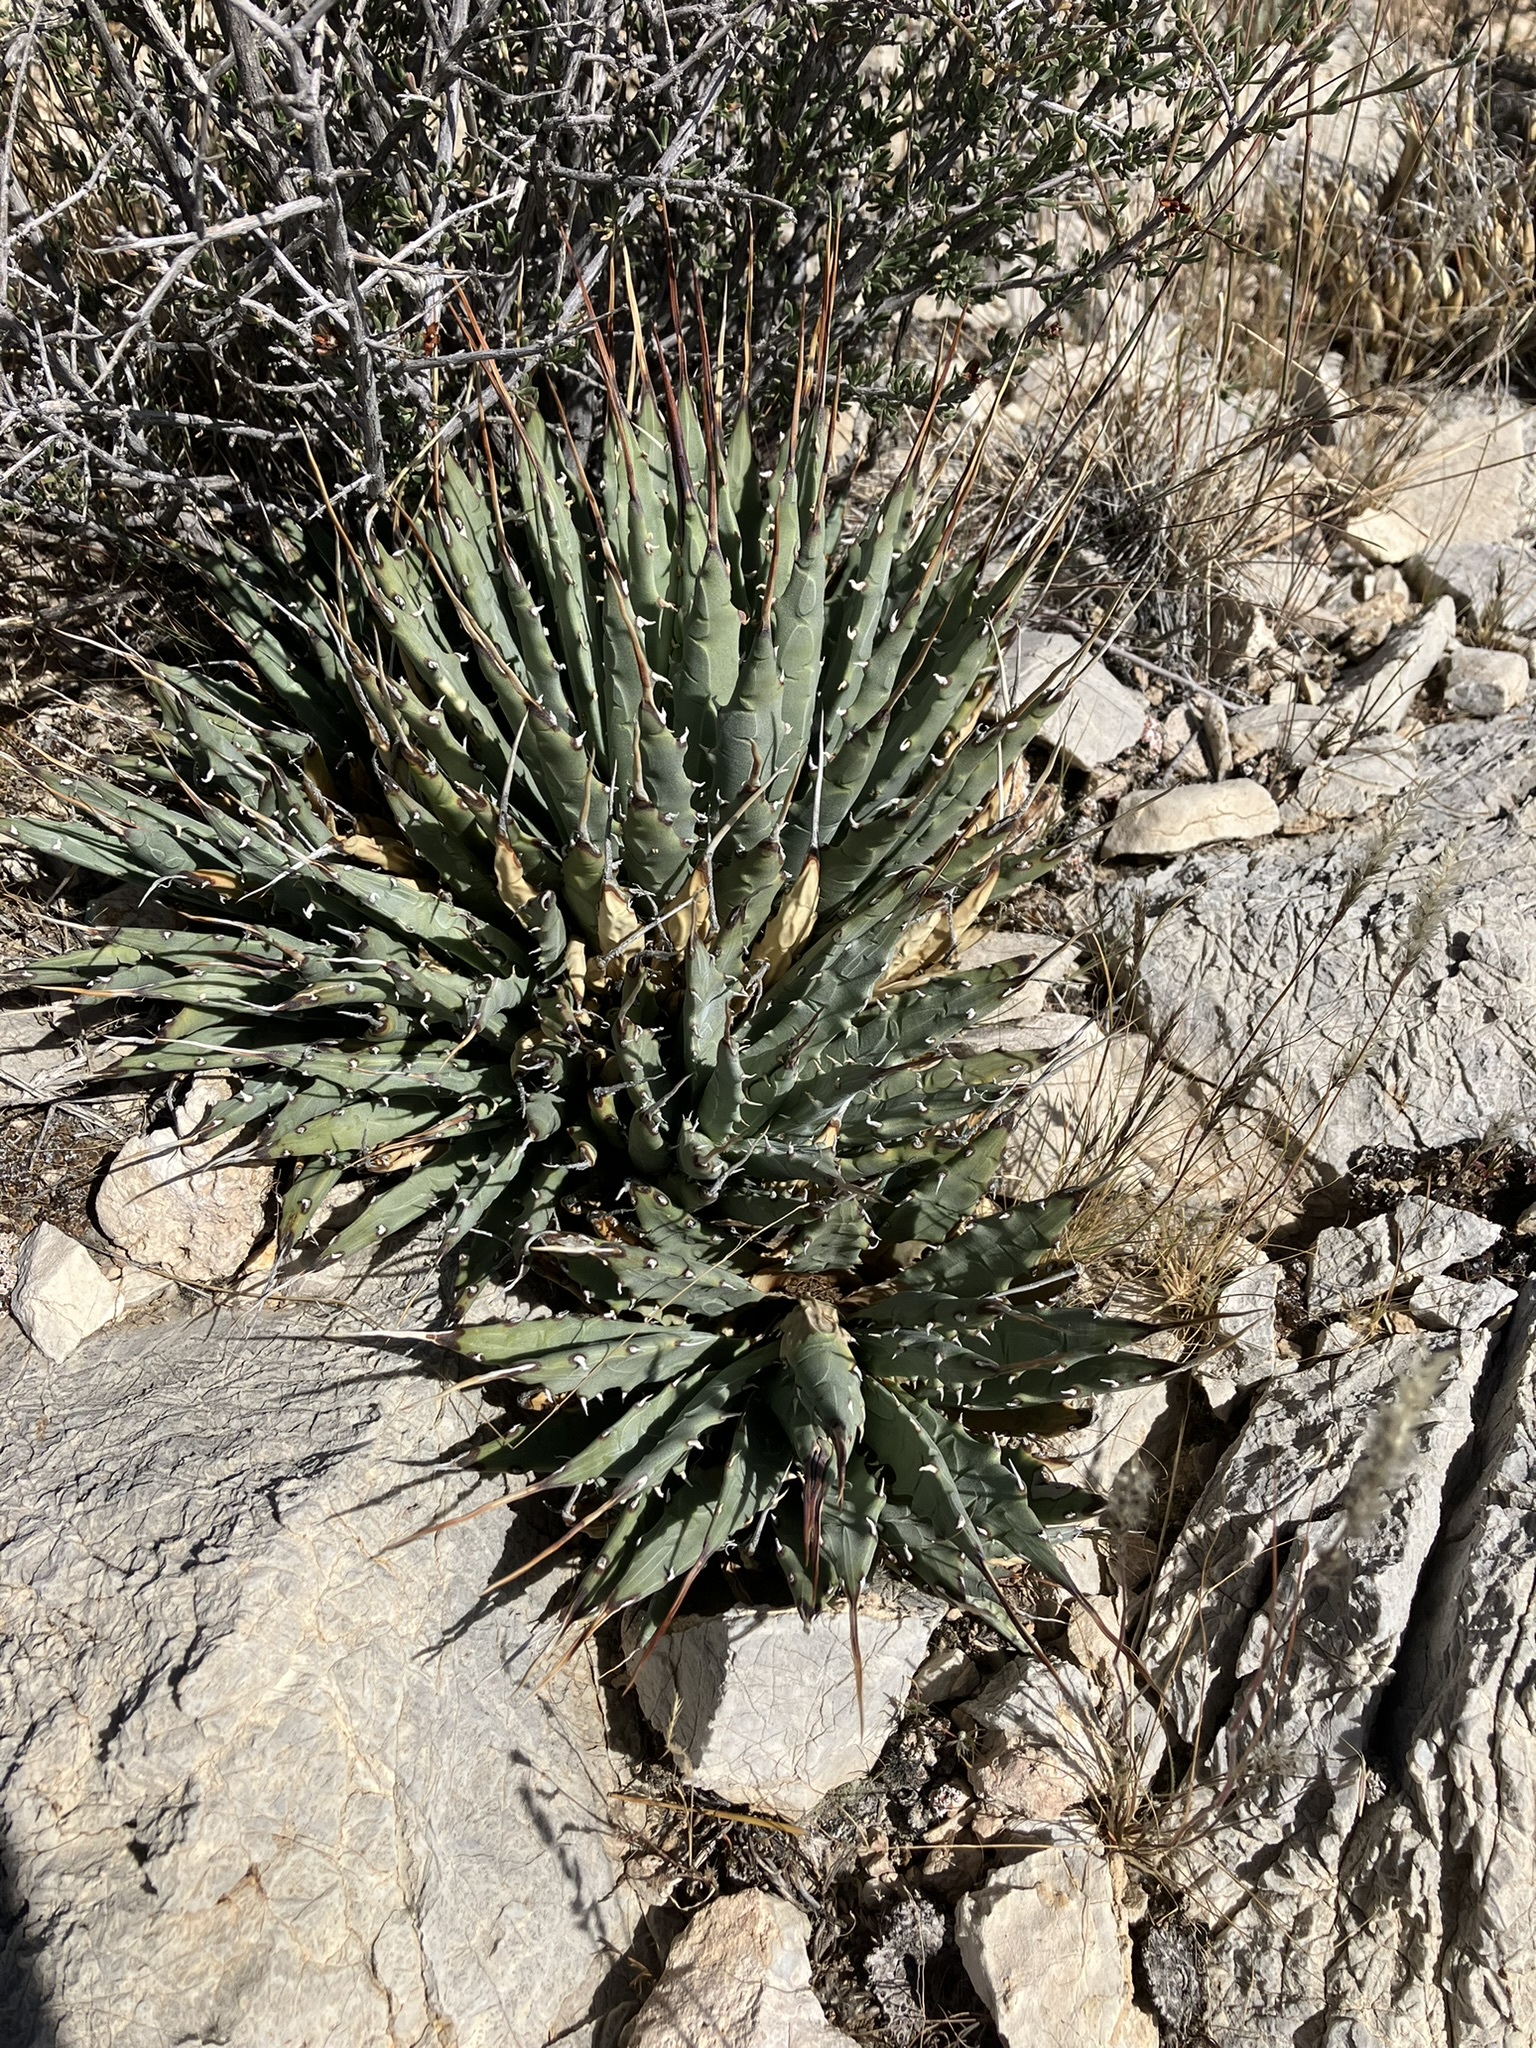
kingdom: Plantae
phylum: Tracheophyta
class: Liliopsida
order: Asparagales
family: Asparagaceae
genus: Agave
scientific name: Agave utahensis
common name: Utah agave
